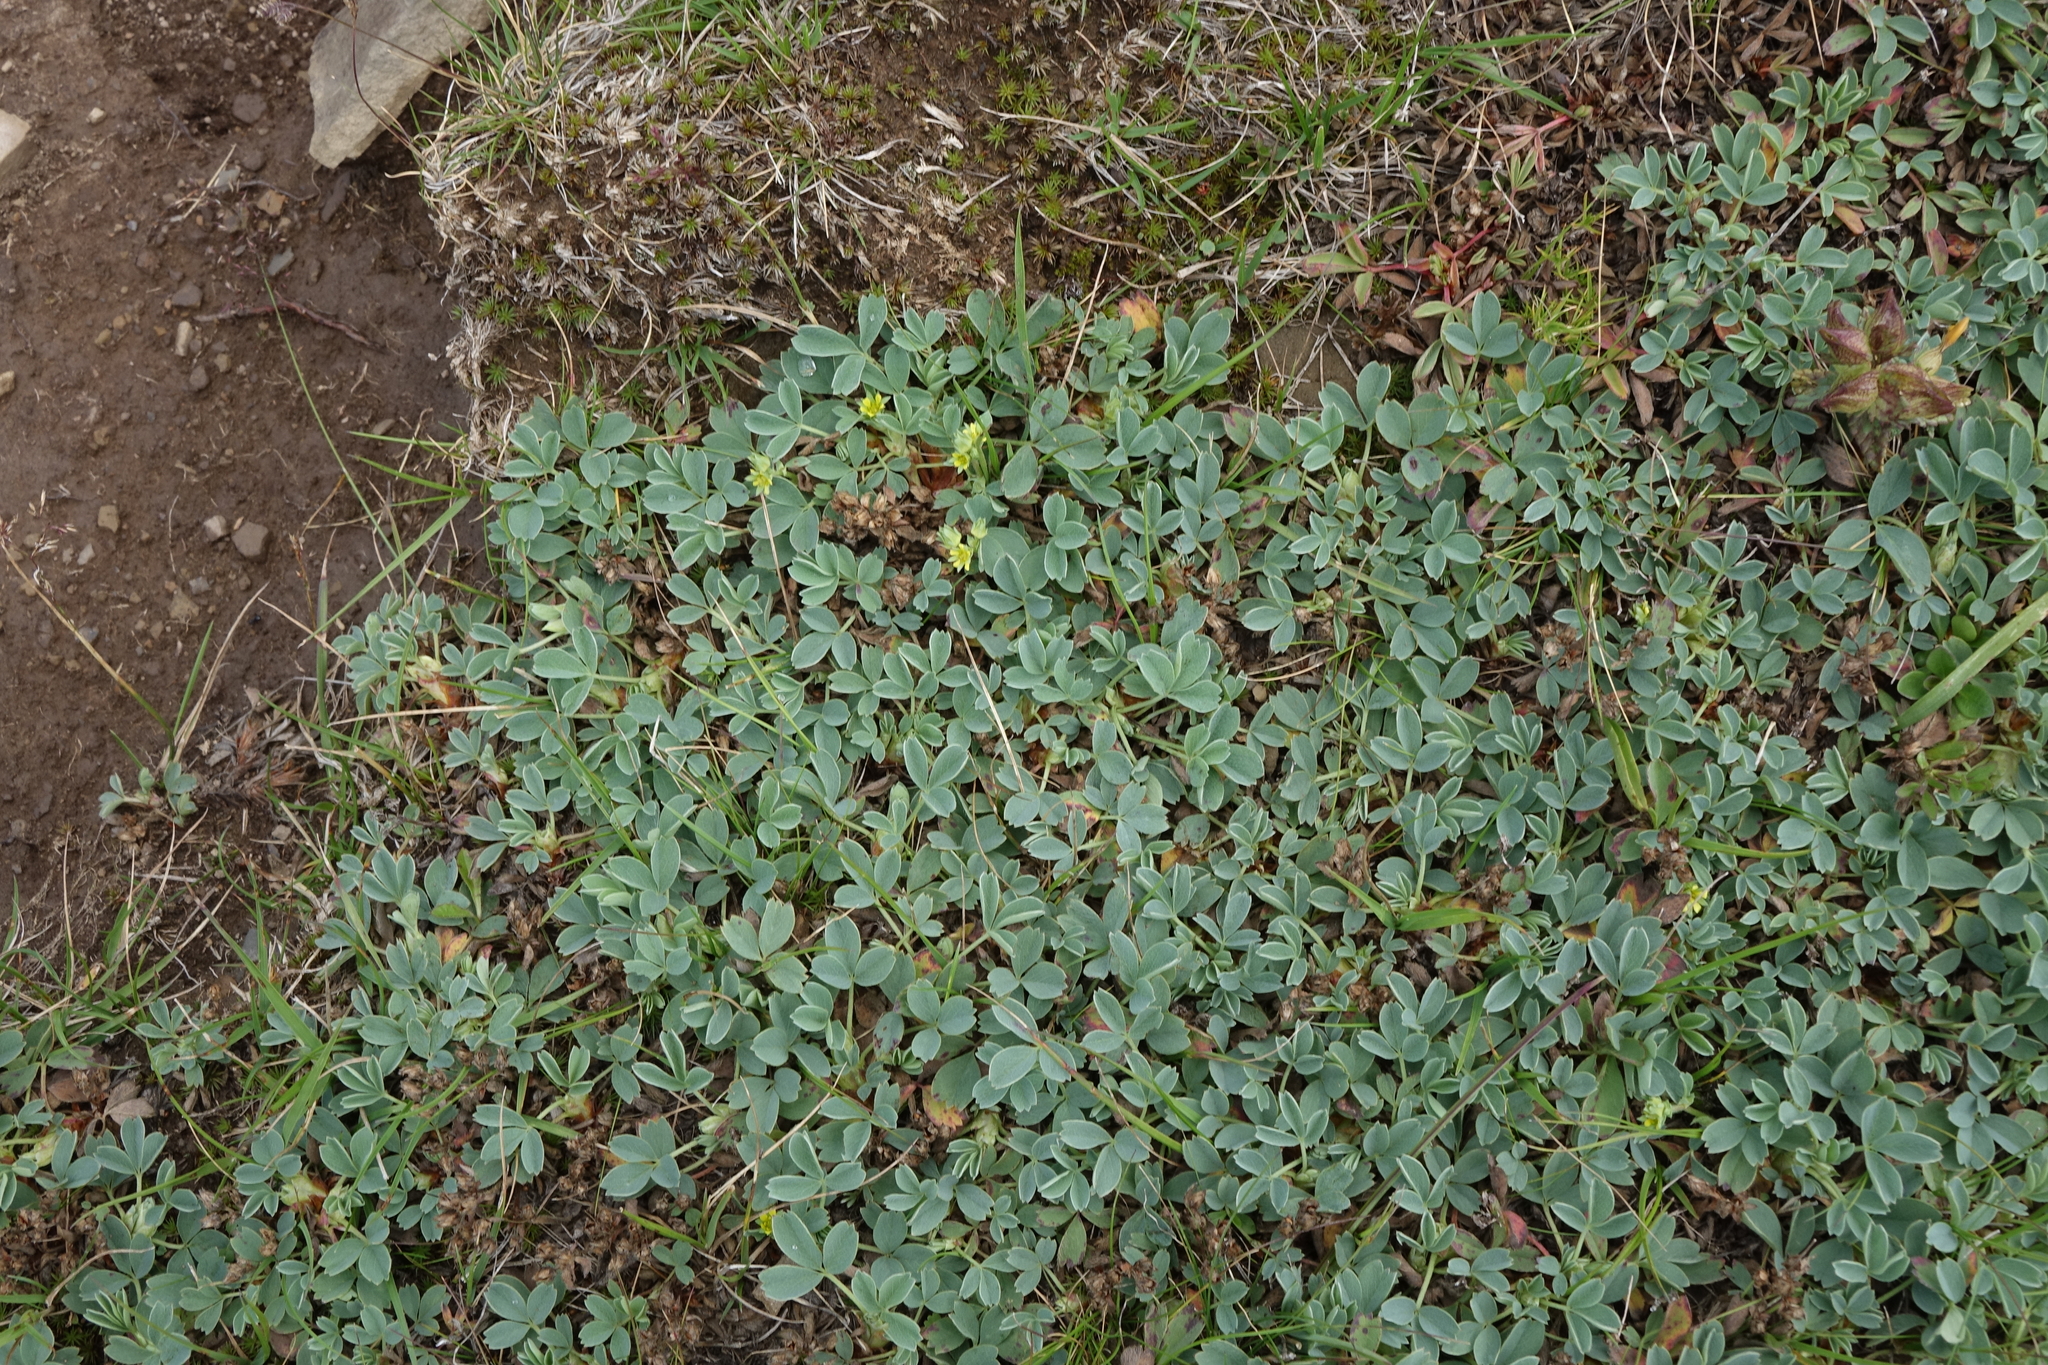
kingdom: Plantae
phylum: Tracheophyta
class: Magnoliopsida
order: Rosales
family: Rosaceae
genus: Sibbaldia
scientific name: Sibbaldia parviflora
